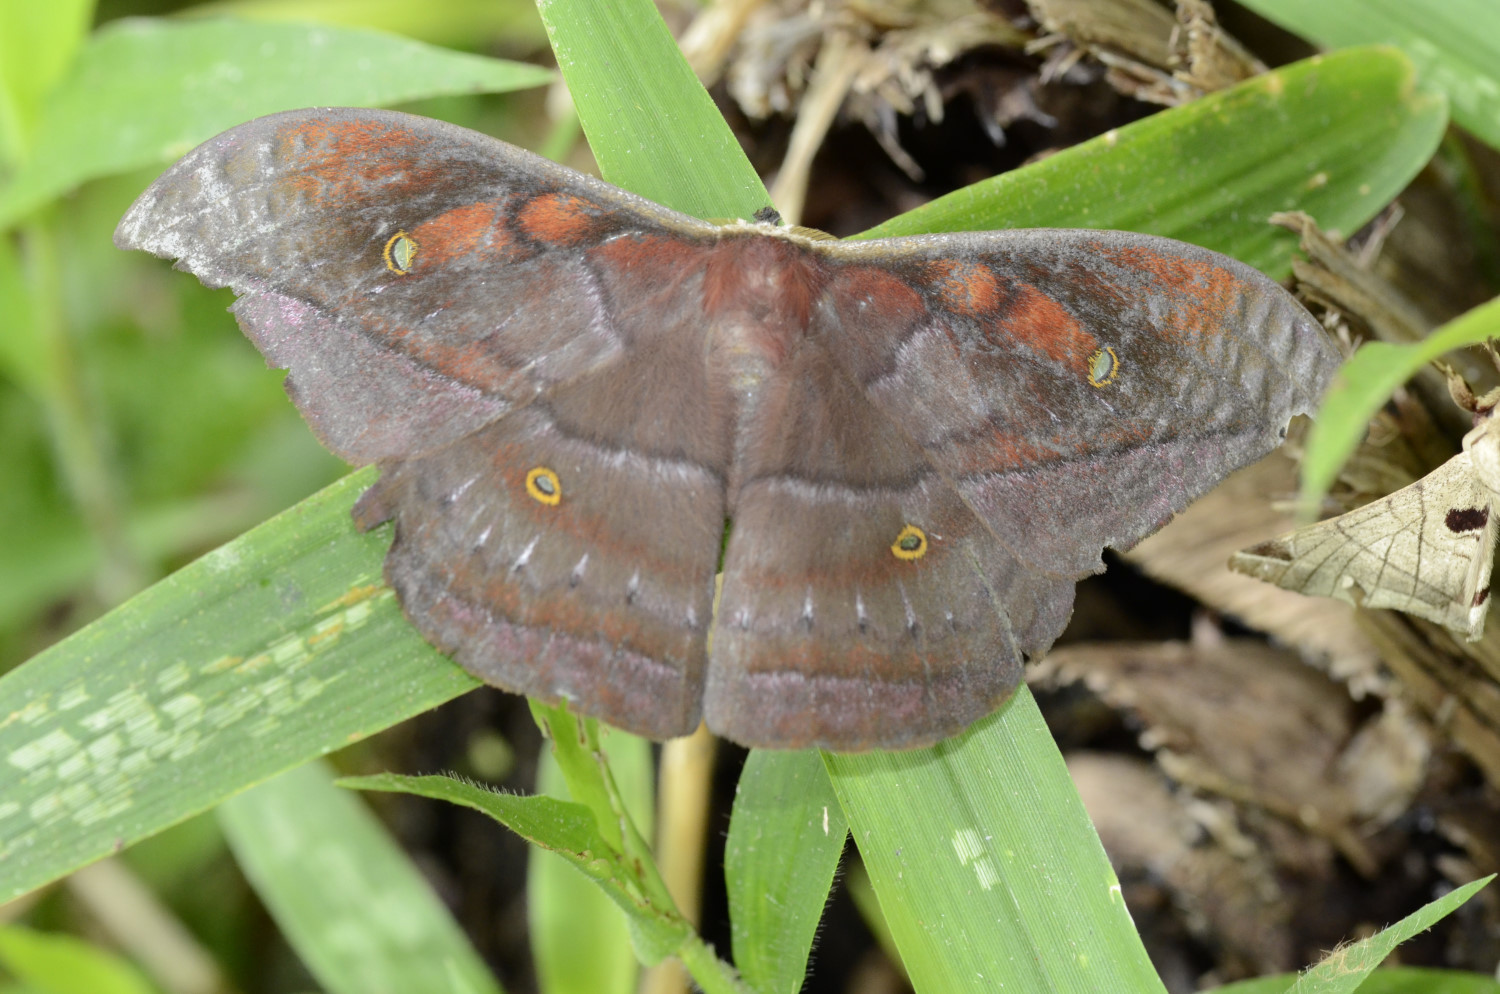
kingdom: Animalia
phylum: Arthropoda
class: Insecta
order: Lepidoptera
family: Saturniidae
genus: Copaxa
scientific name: Copaxa winbrechlini
